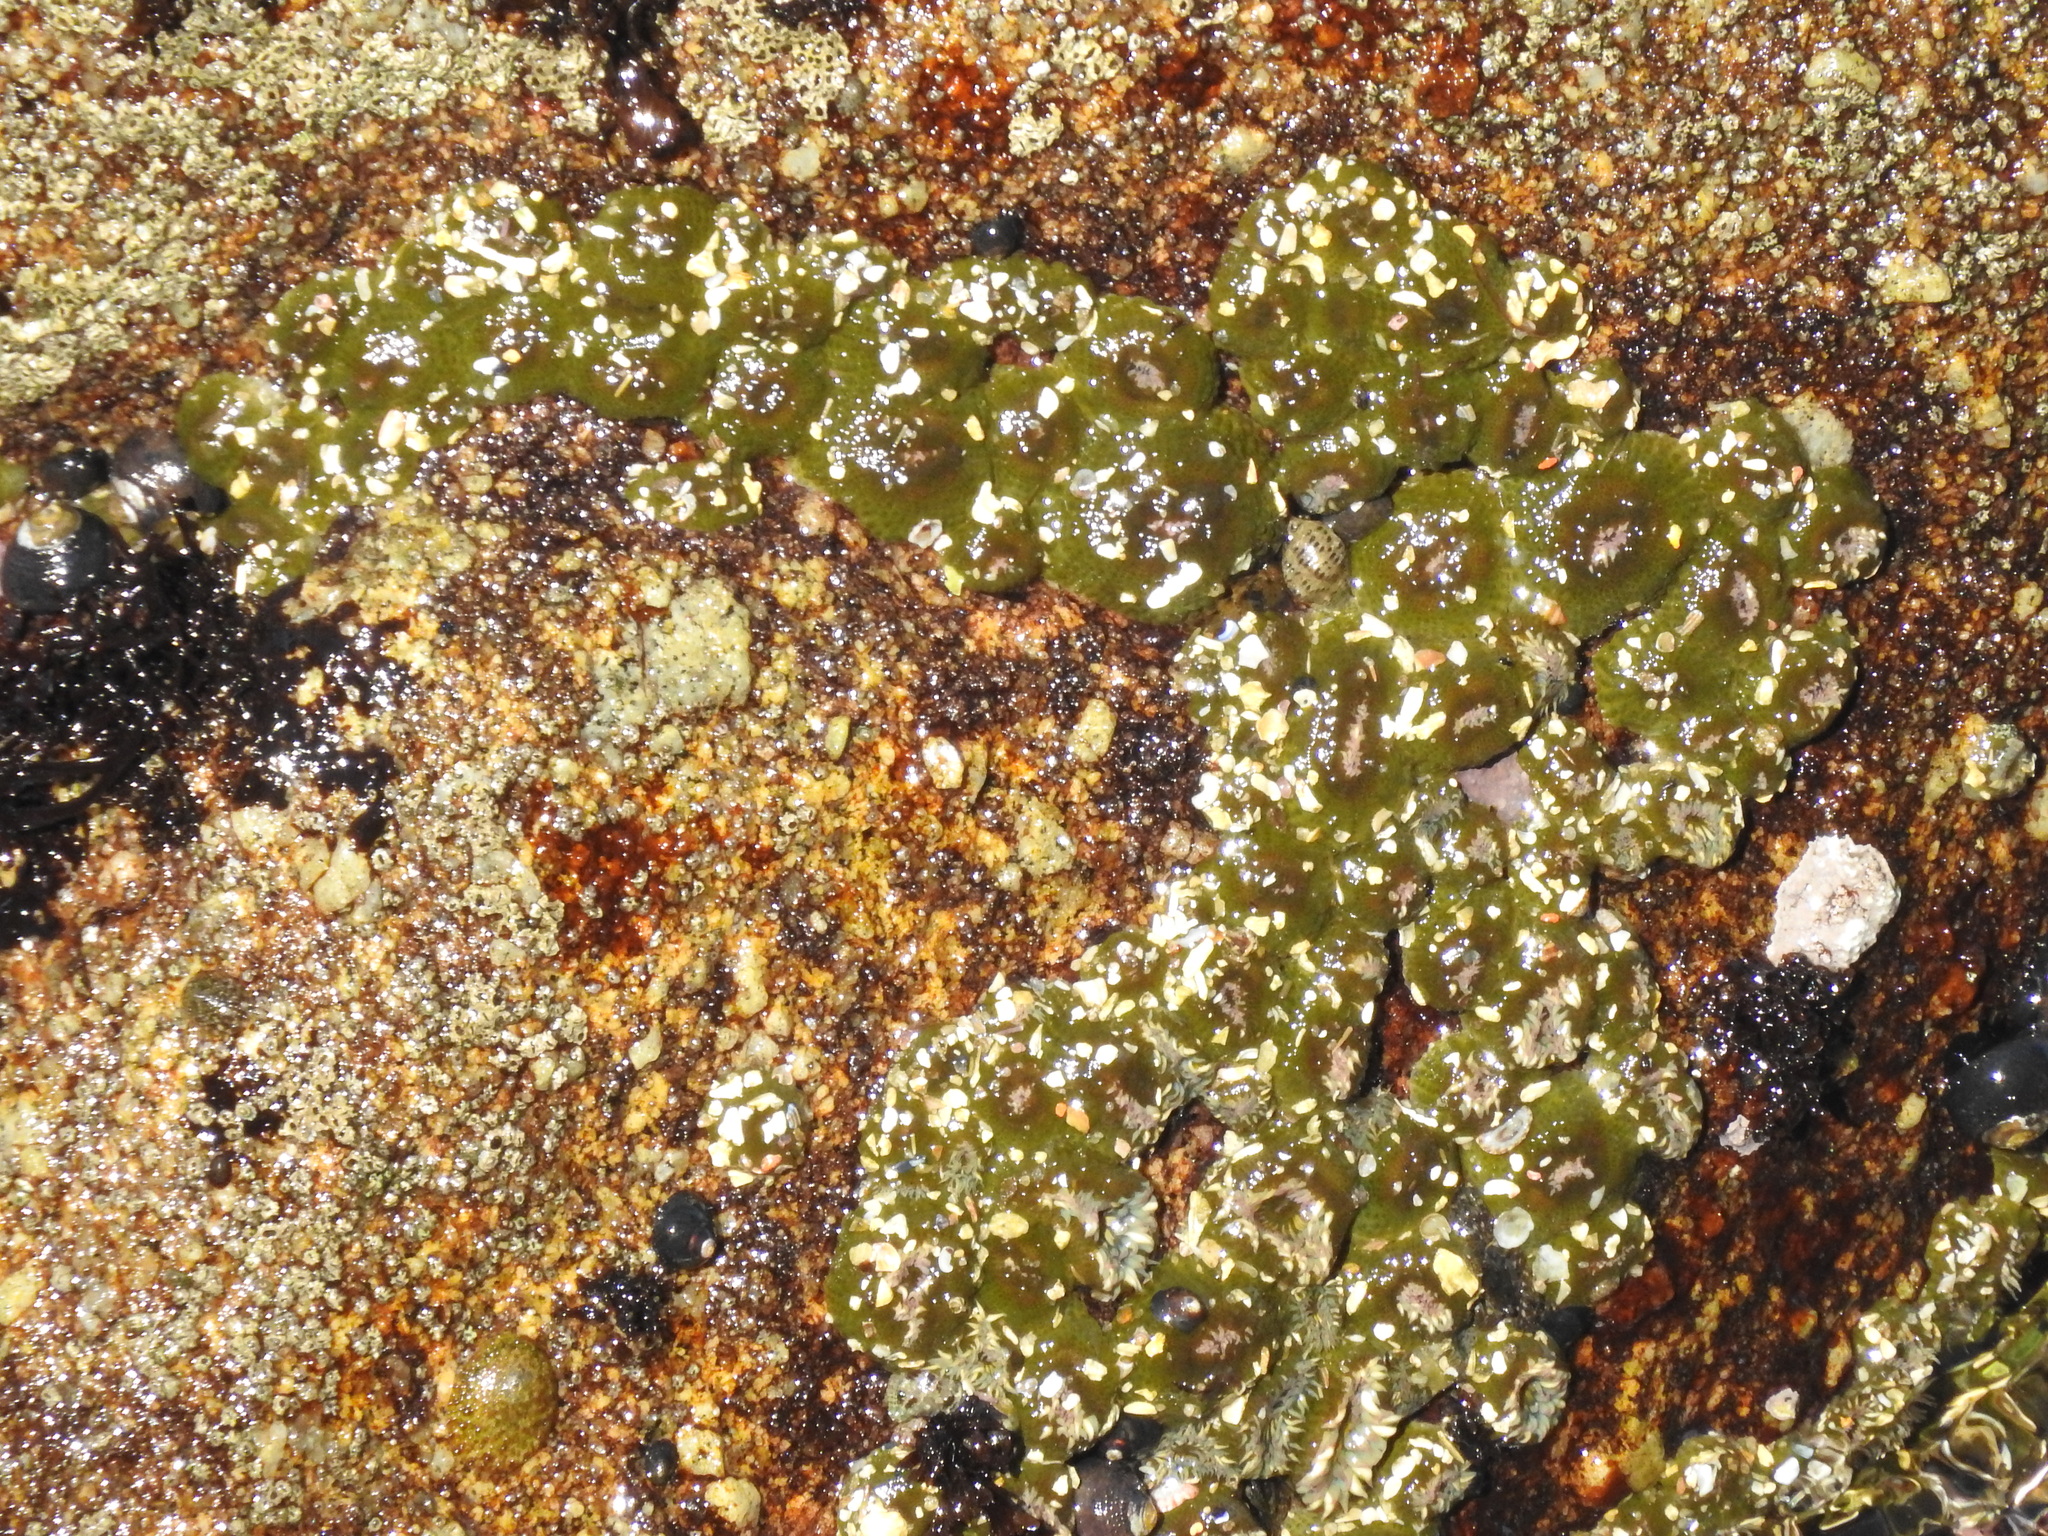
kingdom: Animalia
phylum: Cnidaria
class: Anthozoa
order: Actiniaria
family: Actiniidae
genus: Anthopleura
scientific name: Anthopleura elegantissima
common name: Clonal anemone
